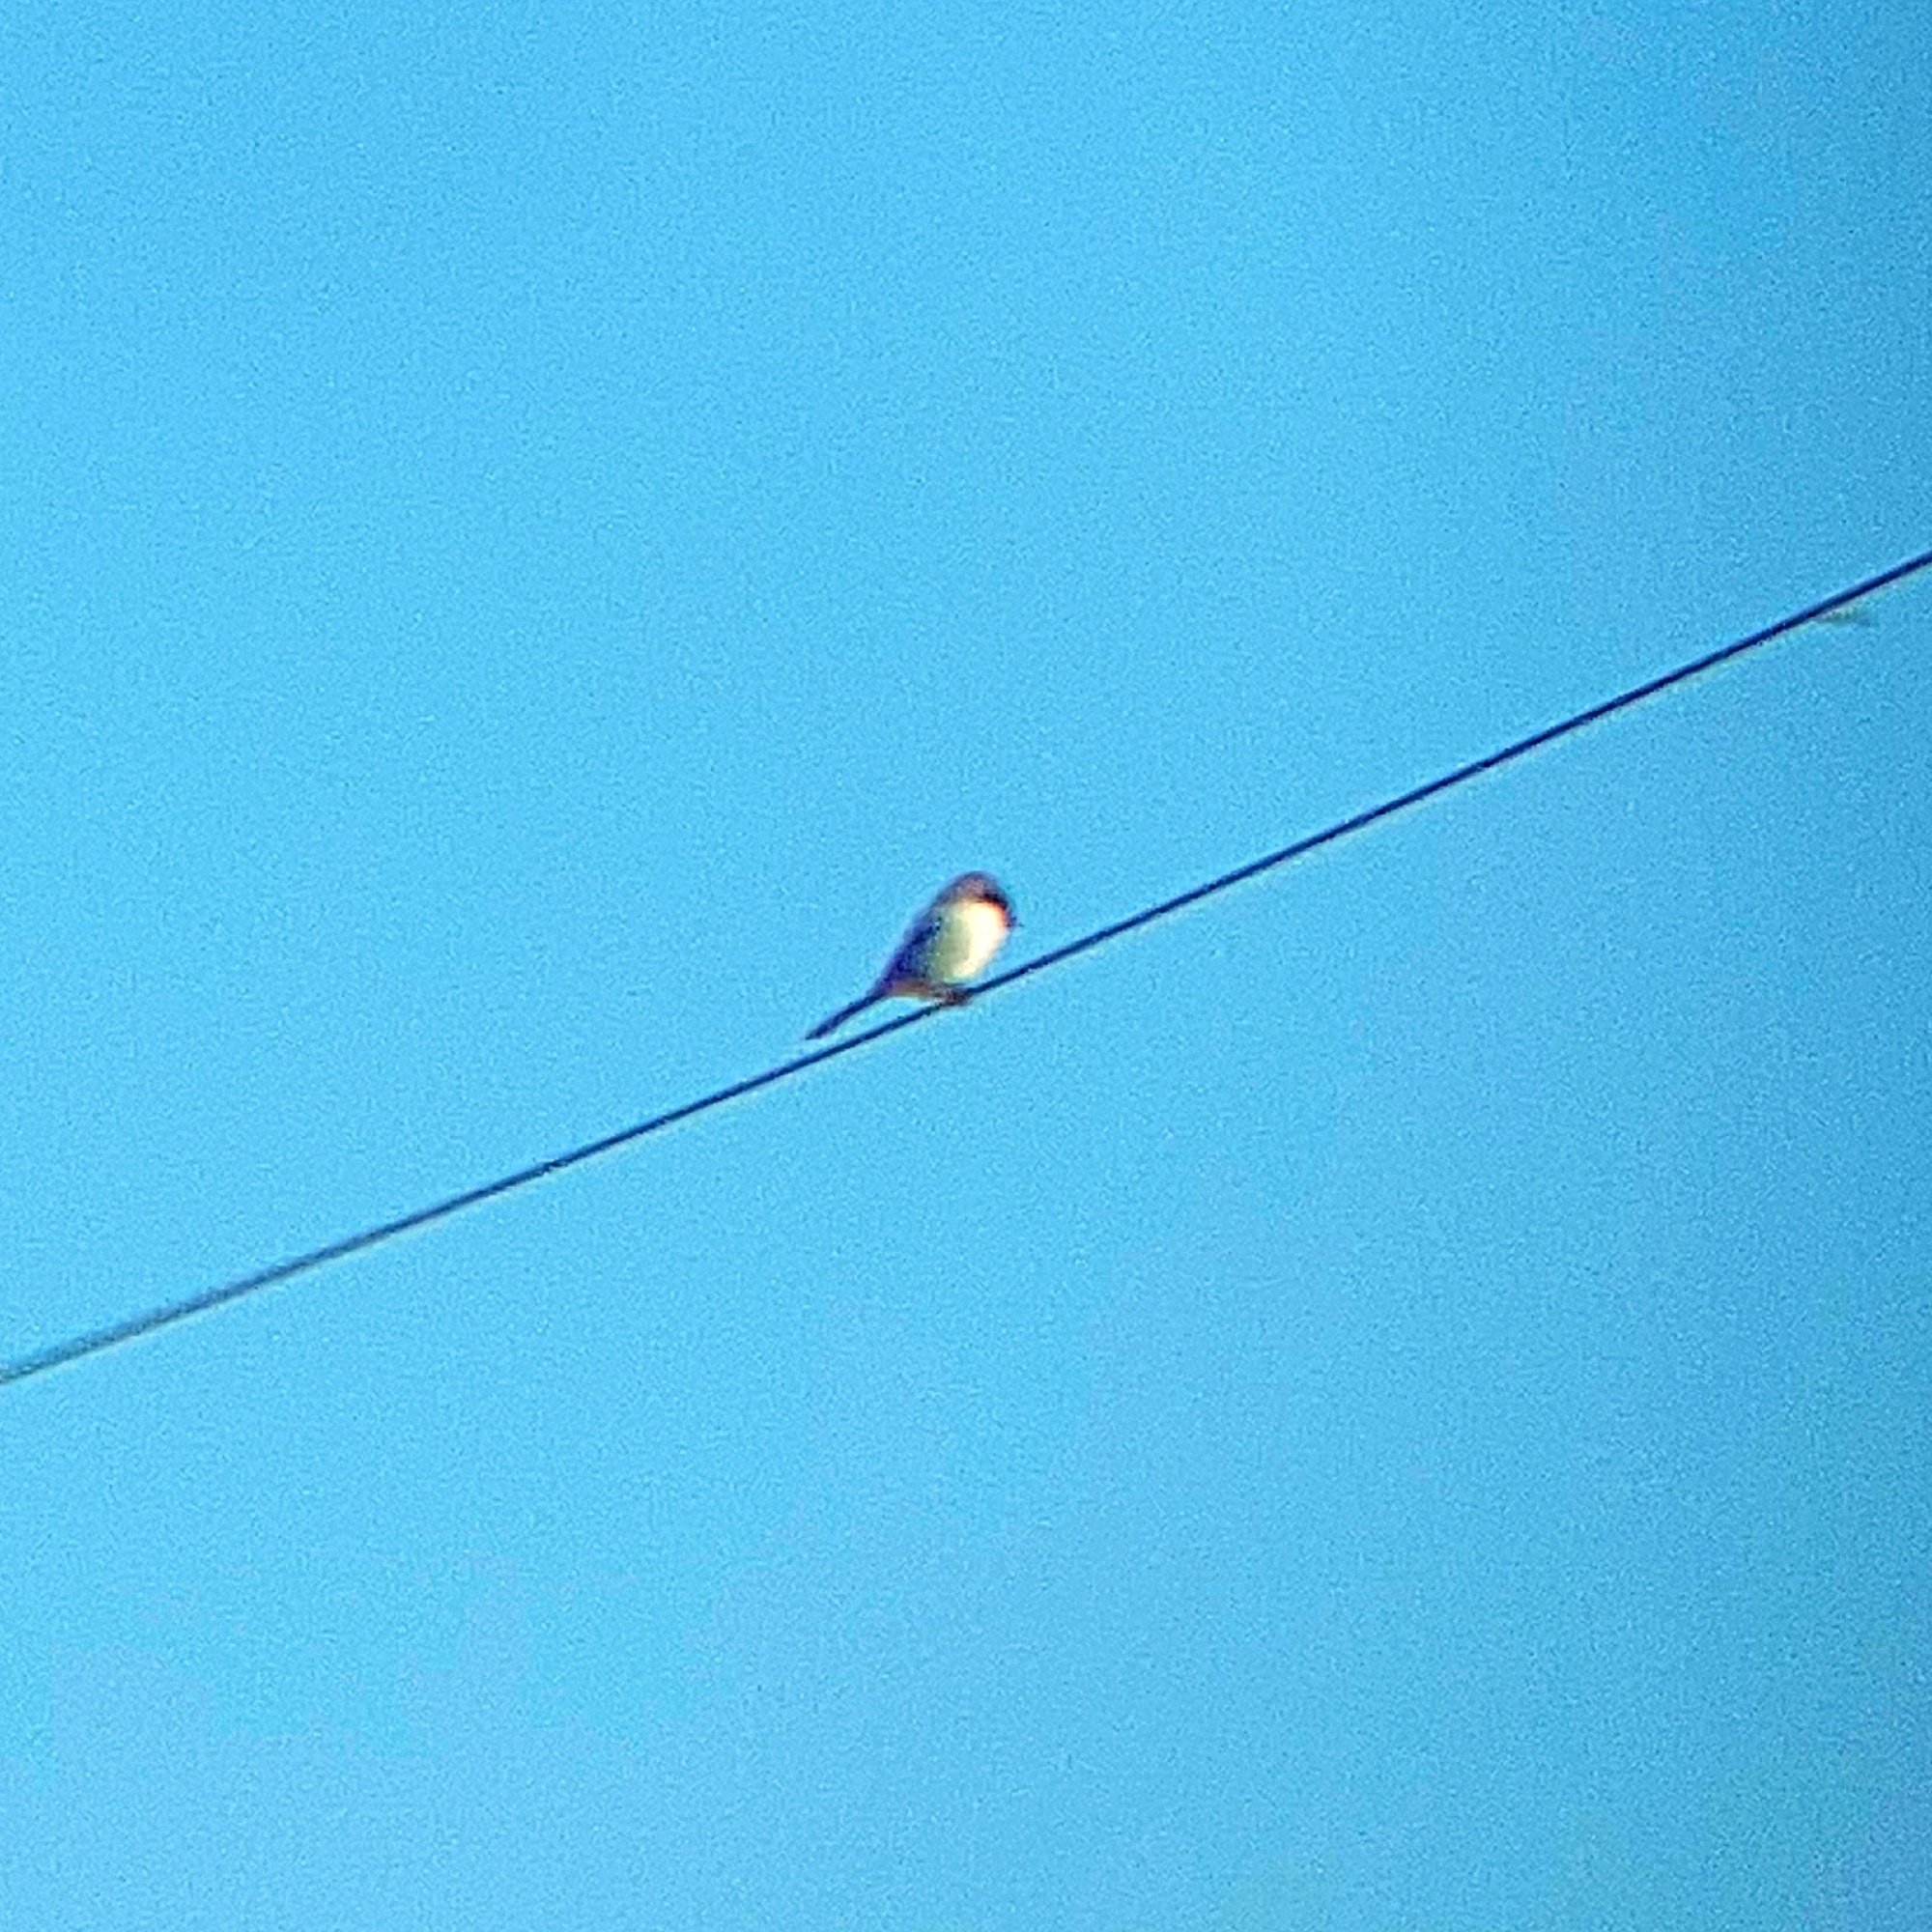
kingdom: Animalia
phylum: Chordata
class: Aves
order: Passeriformes
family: Laniidae
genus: Lanius
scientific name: Lanius ludovicianus
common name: Loggerhead shrike
